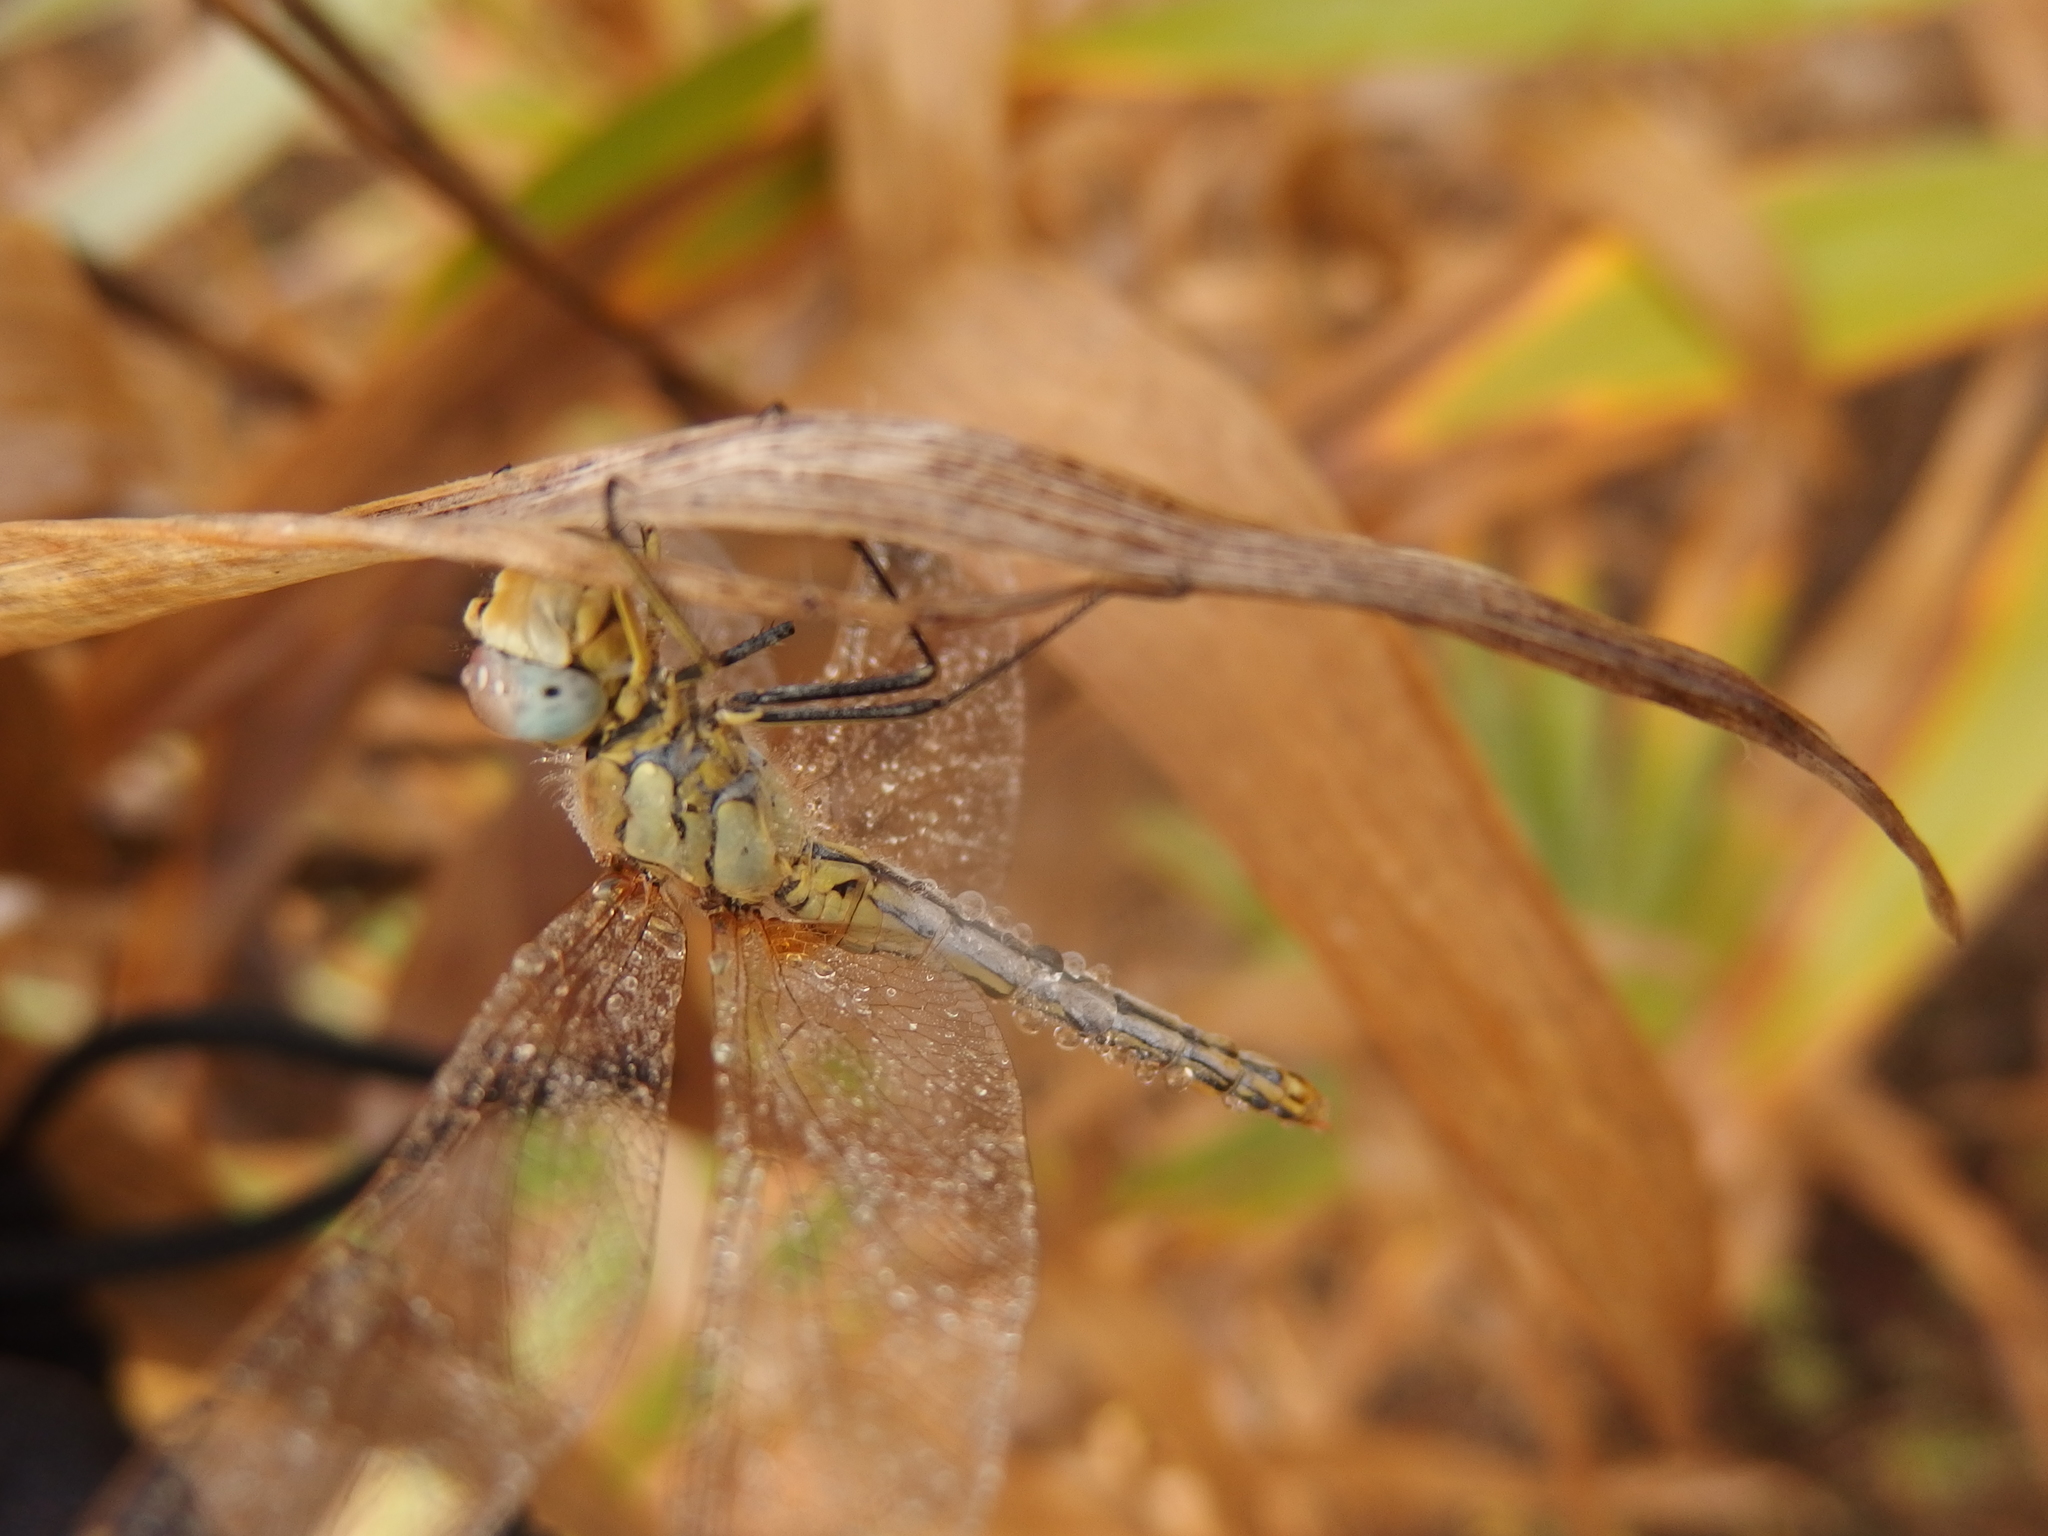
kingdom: Animalia
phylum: Arthropoda
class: Insecta
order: Odonata
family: Libellulidae
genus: Sympetrum
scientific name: Sympetrum fonscolombii
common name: Red-veined darter
